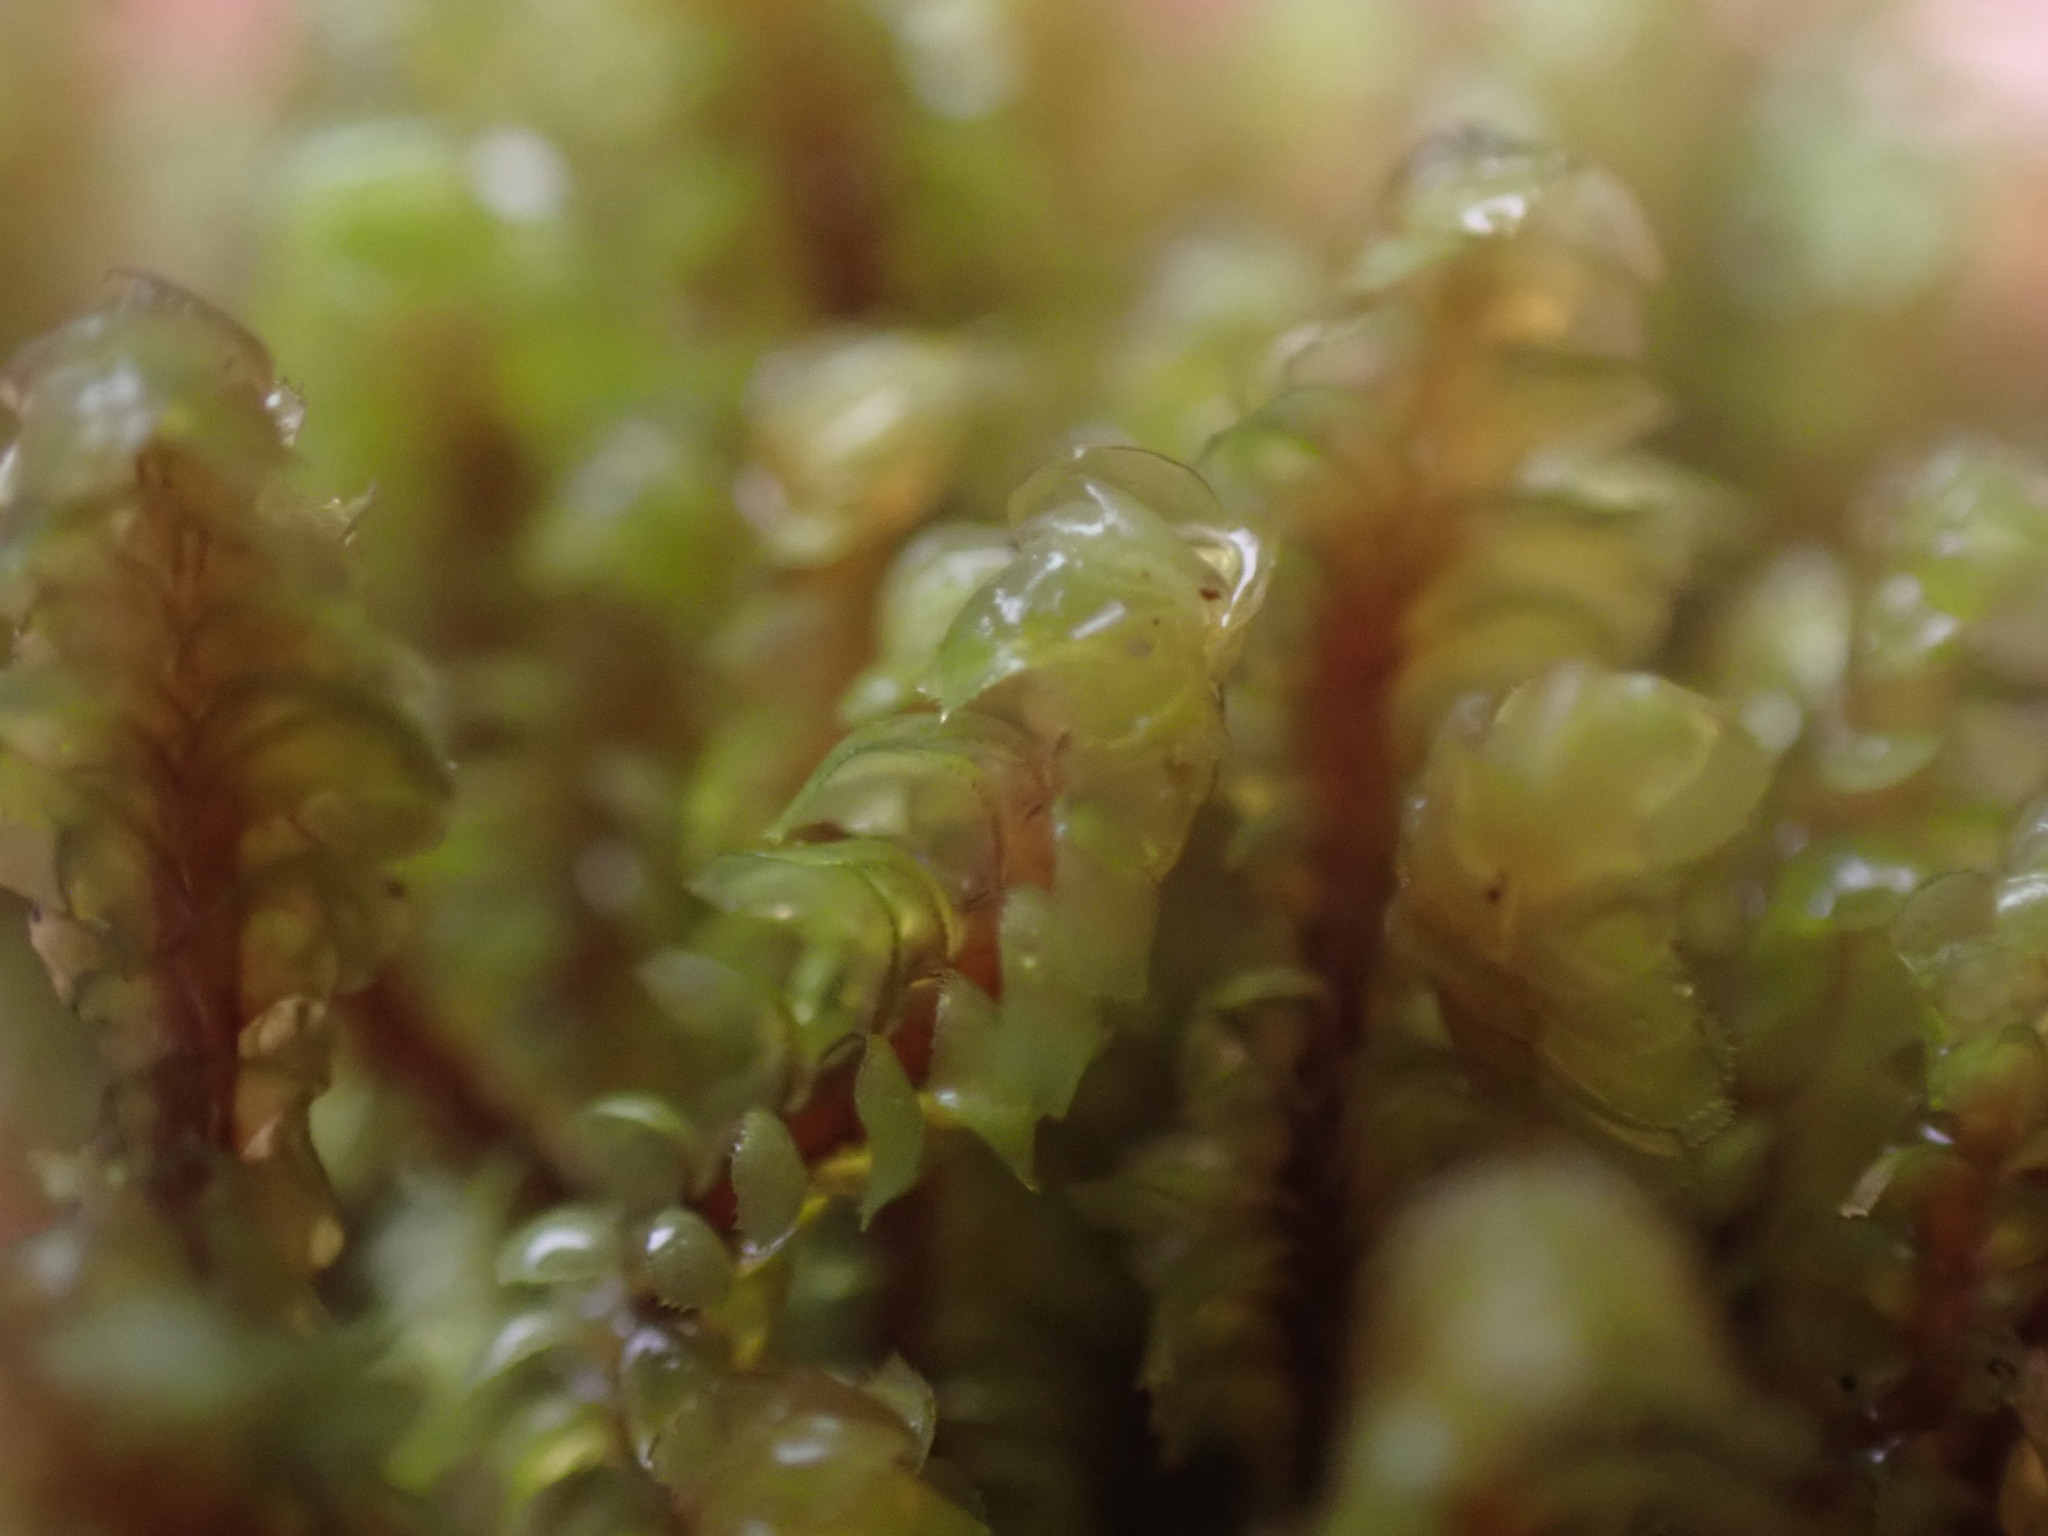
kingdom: Plantae
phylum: Marchantiophyta
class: Jungermanniopsida
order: Jungermanniales
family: Scapaniaceae
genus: Scapania
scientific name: Scapania bolanderi
